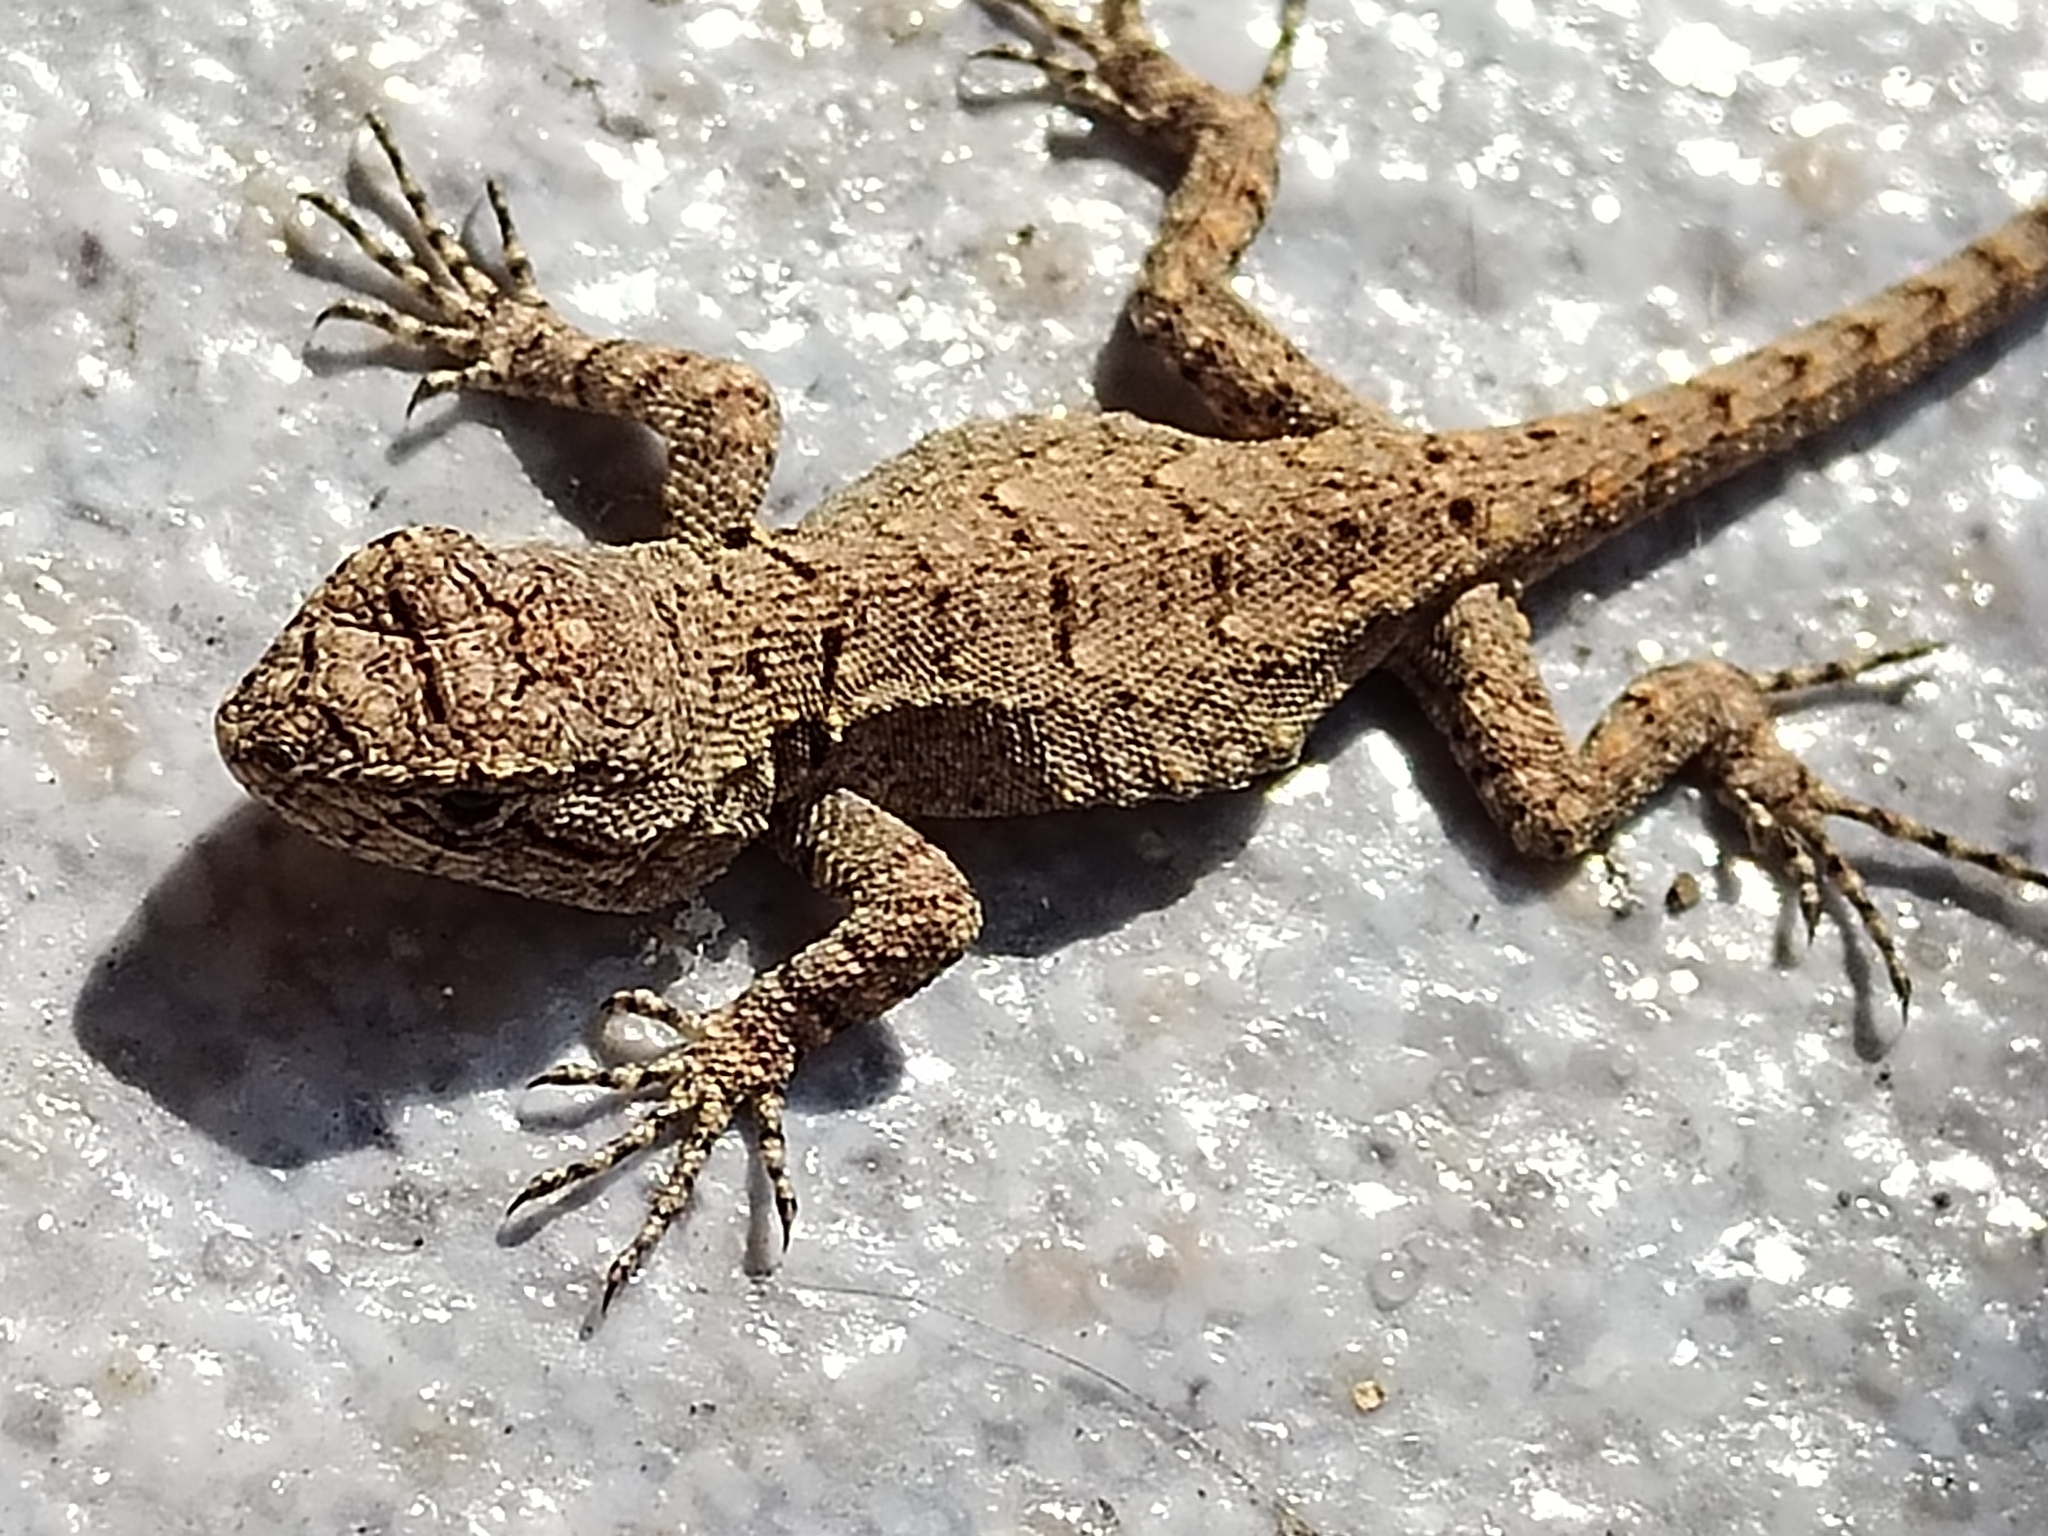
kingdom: Animalia
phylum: Chordata
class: Squamata
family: Phrynosomatidae
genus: Sceloporus
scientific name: Sceloporus grammicus
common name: Mesquite lizard
